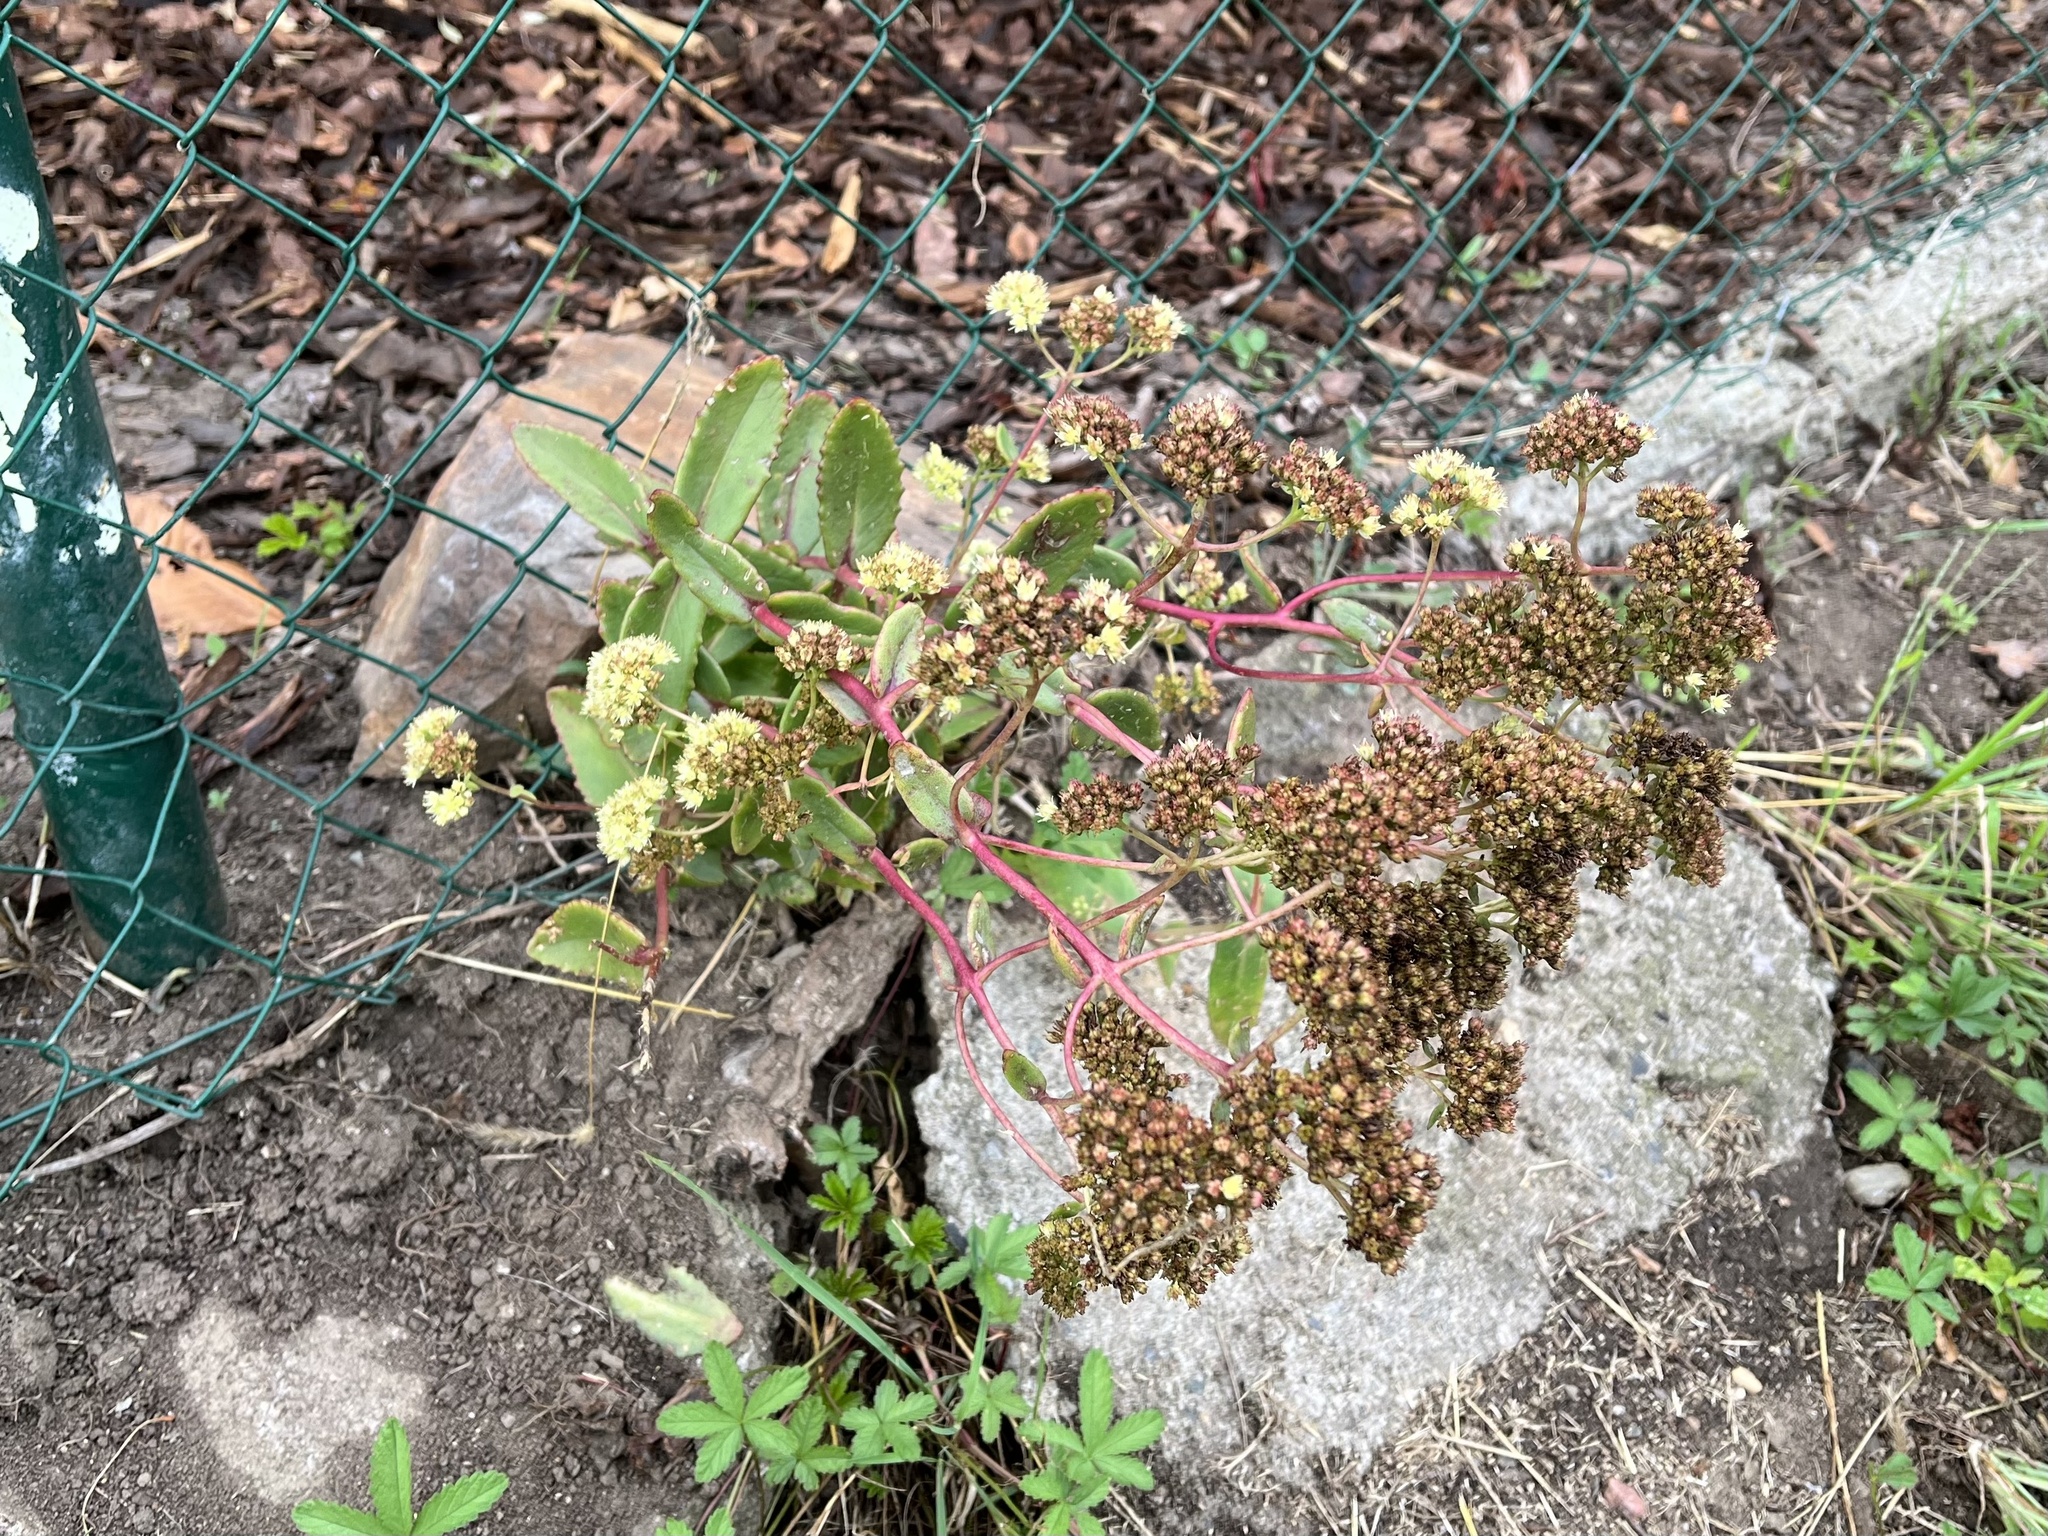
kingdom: Plantae
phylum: Tracheophyta
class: Magnoliopsida
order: Saxifragales
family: Crassulaceae
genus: Hylotelephium
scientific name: Hylotelephium maximum
